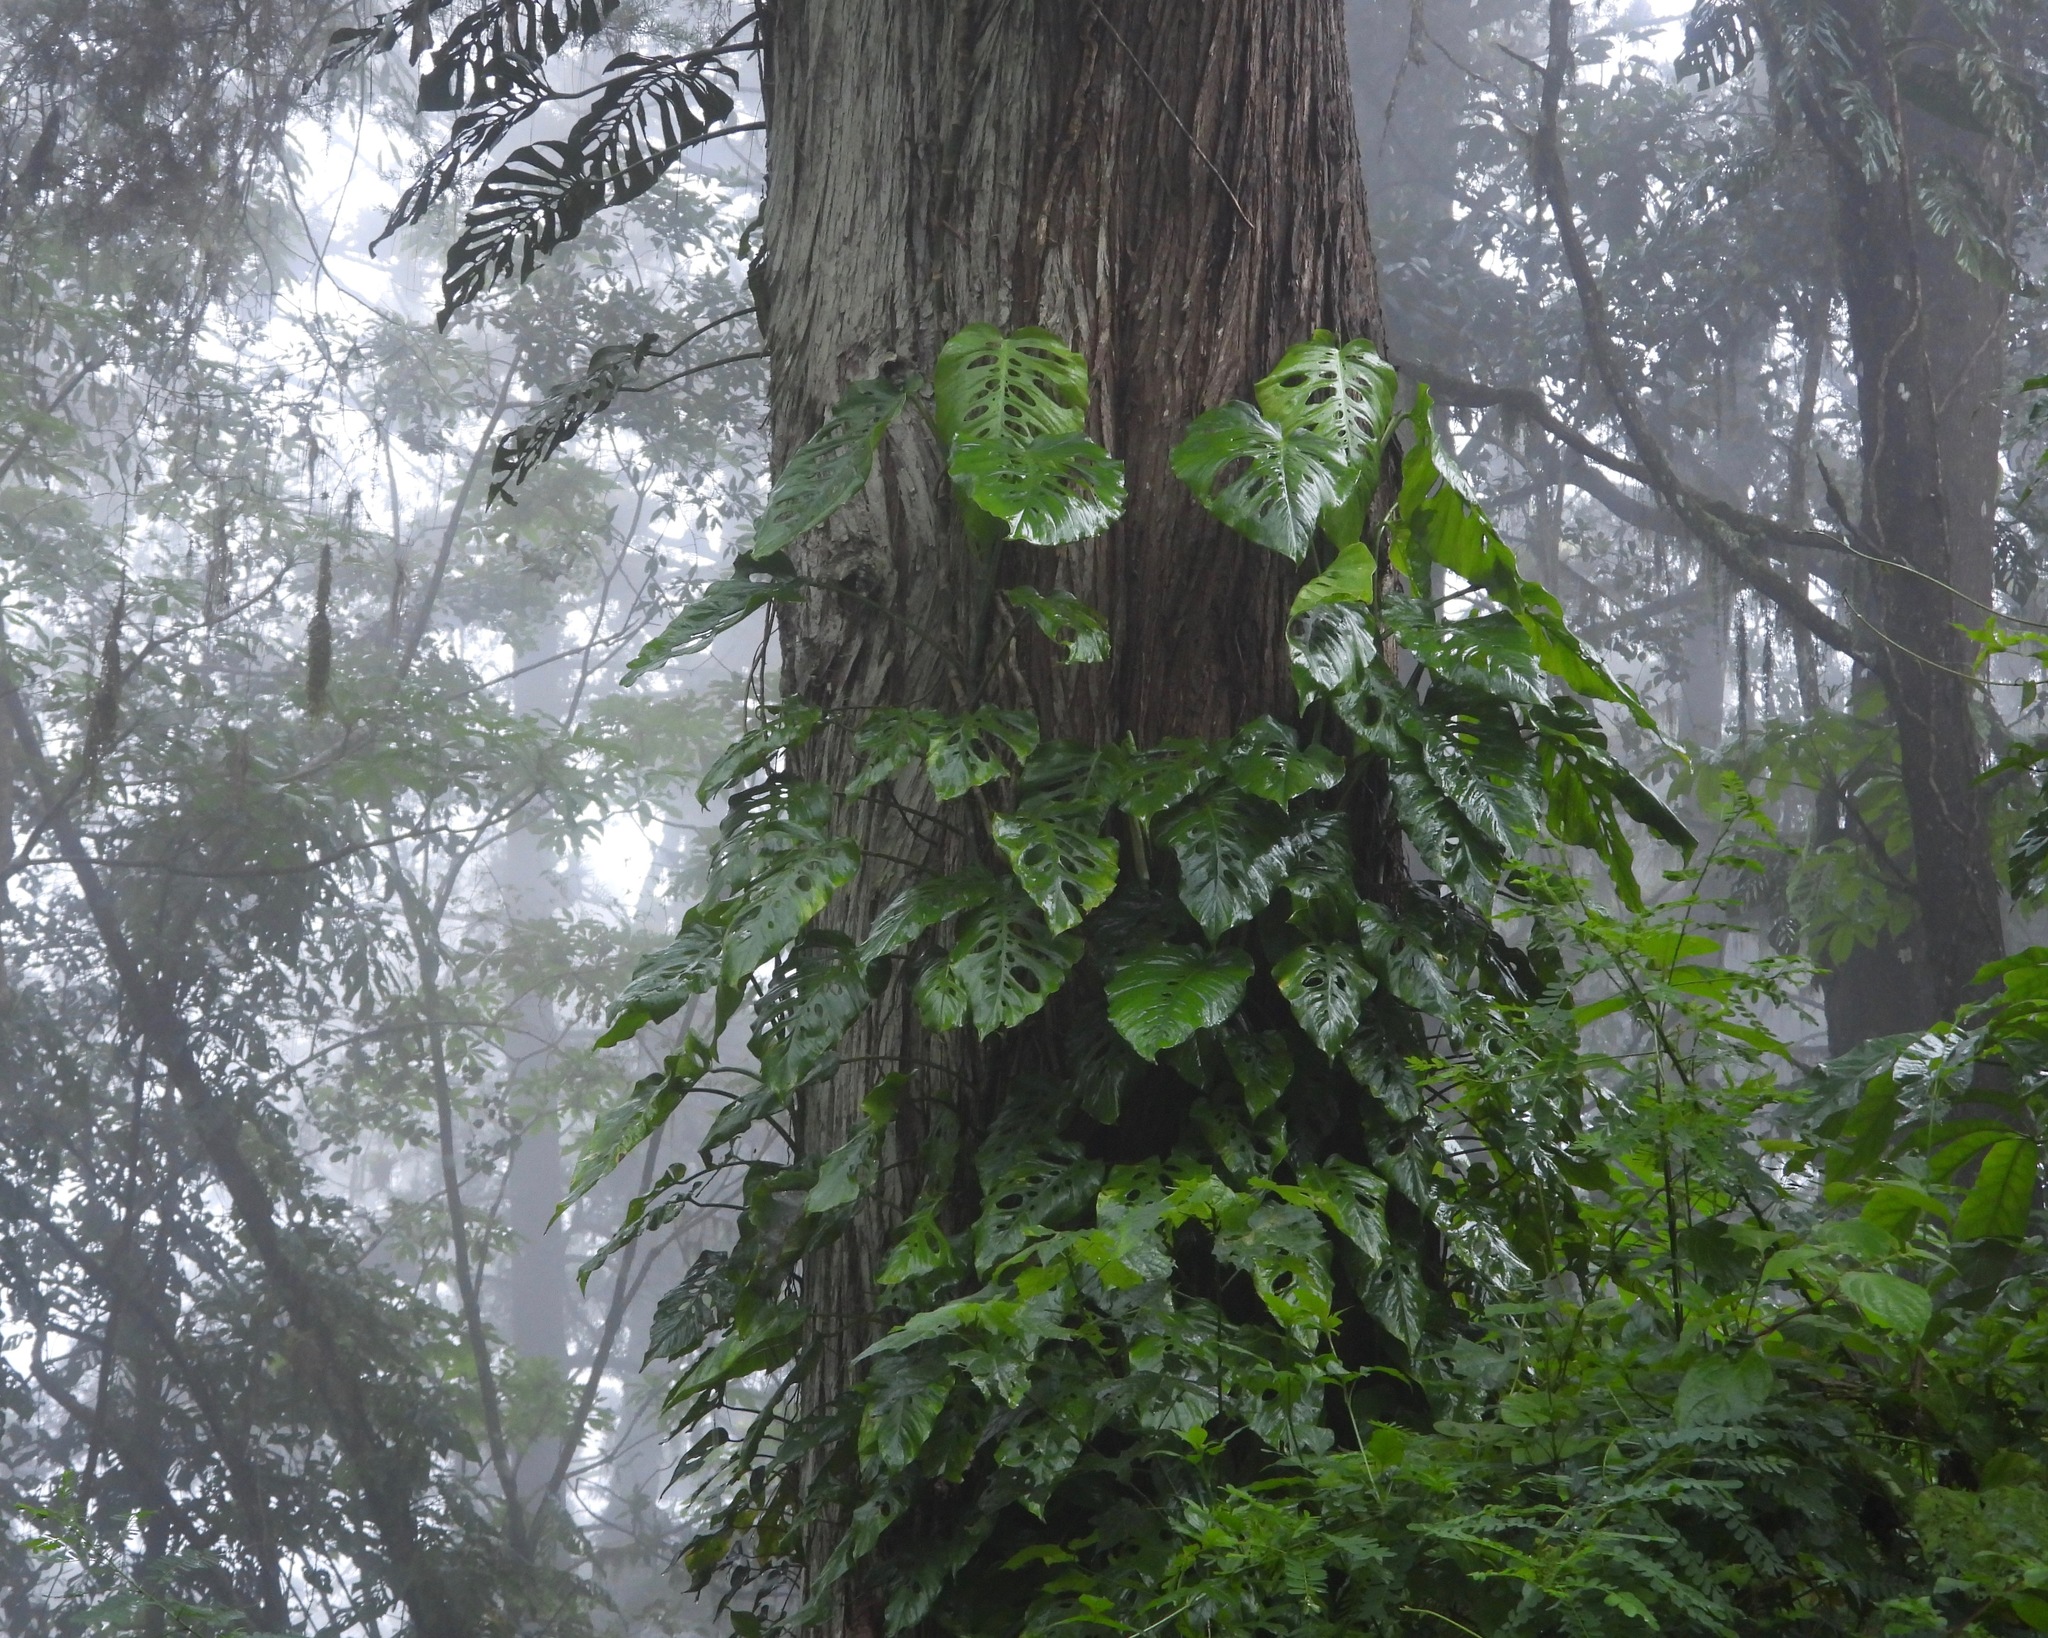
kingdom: Plantae
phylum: Tracheophyta
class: Liliopsida
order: Alismatales
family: Araceae
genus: Monstera
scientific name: Monstera siltepecana
